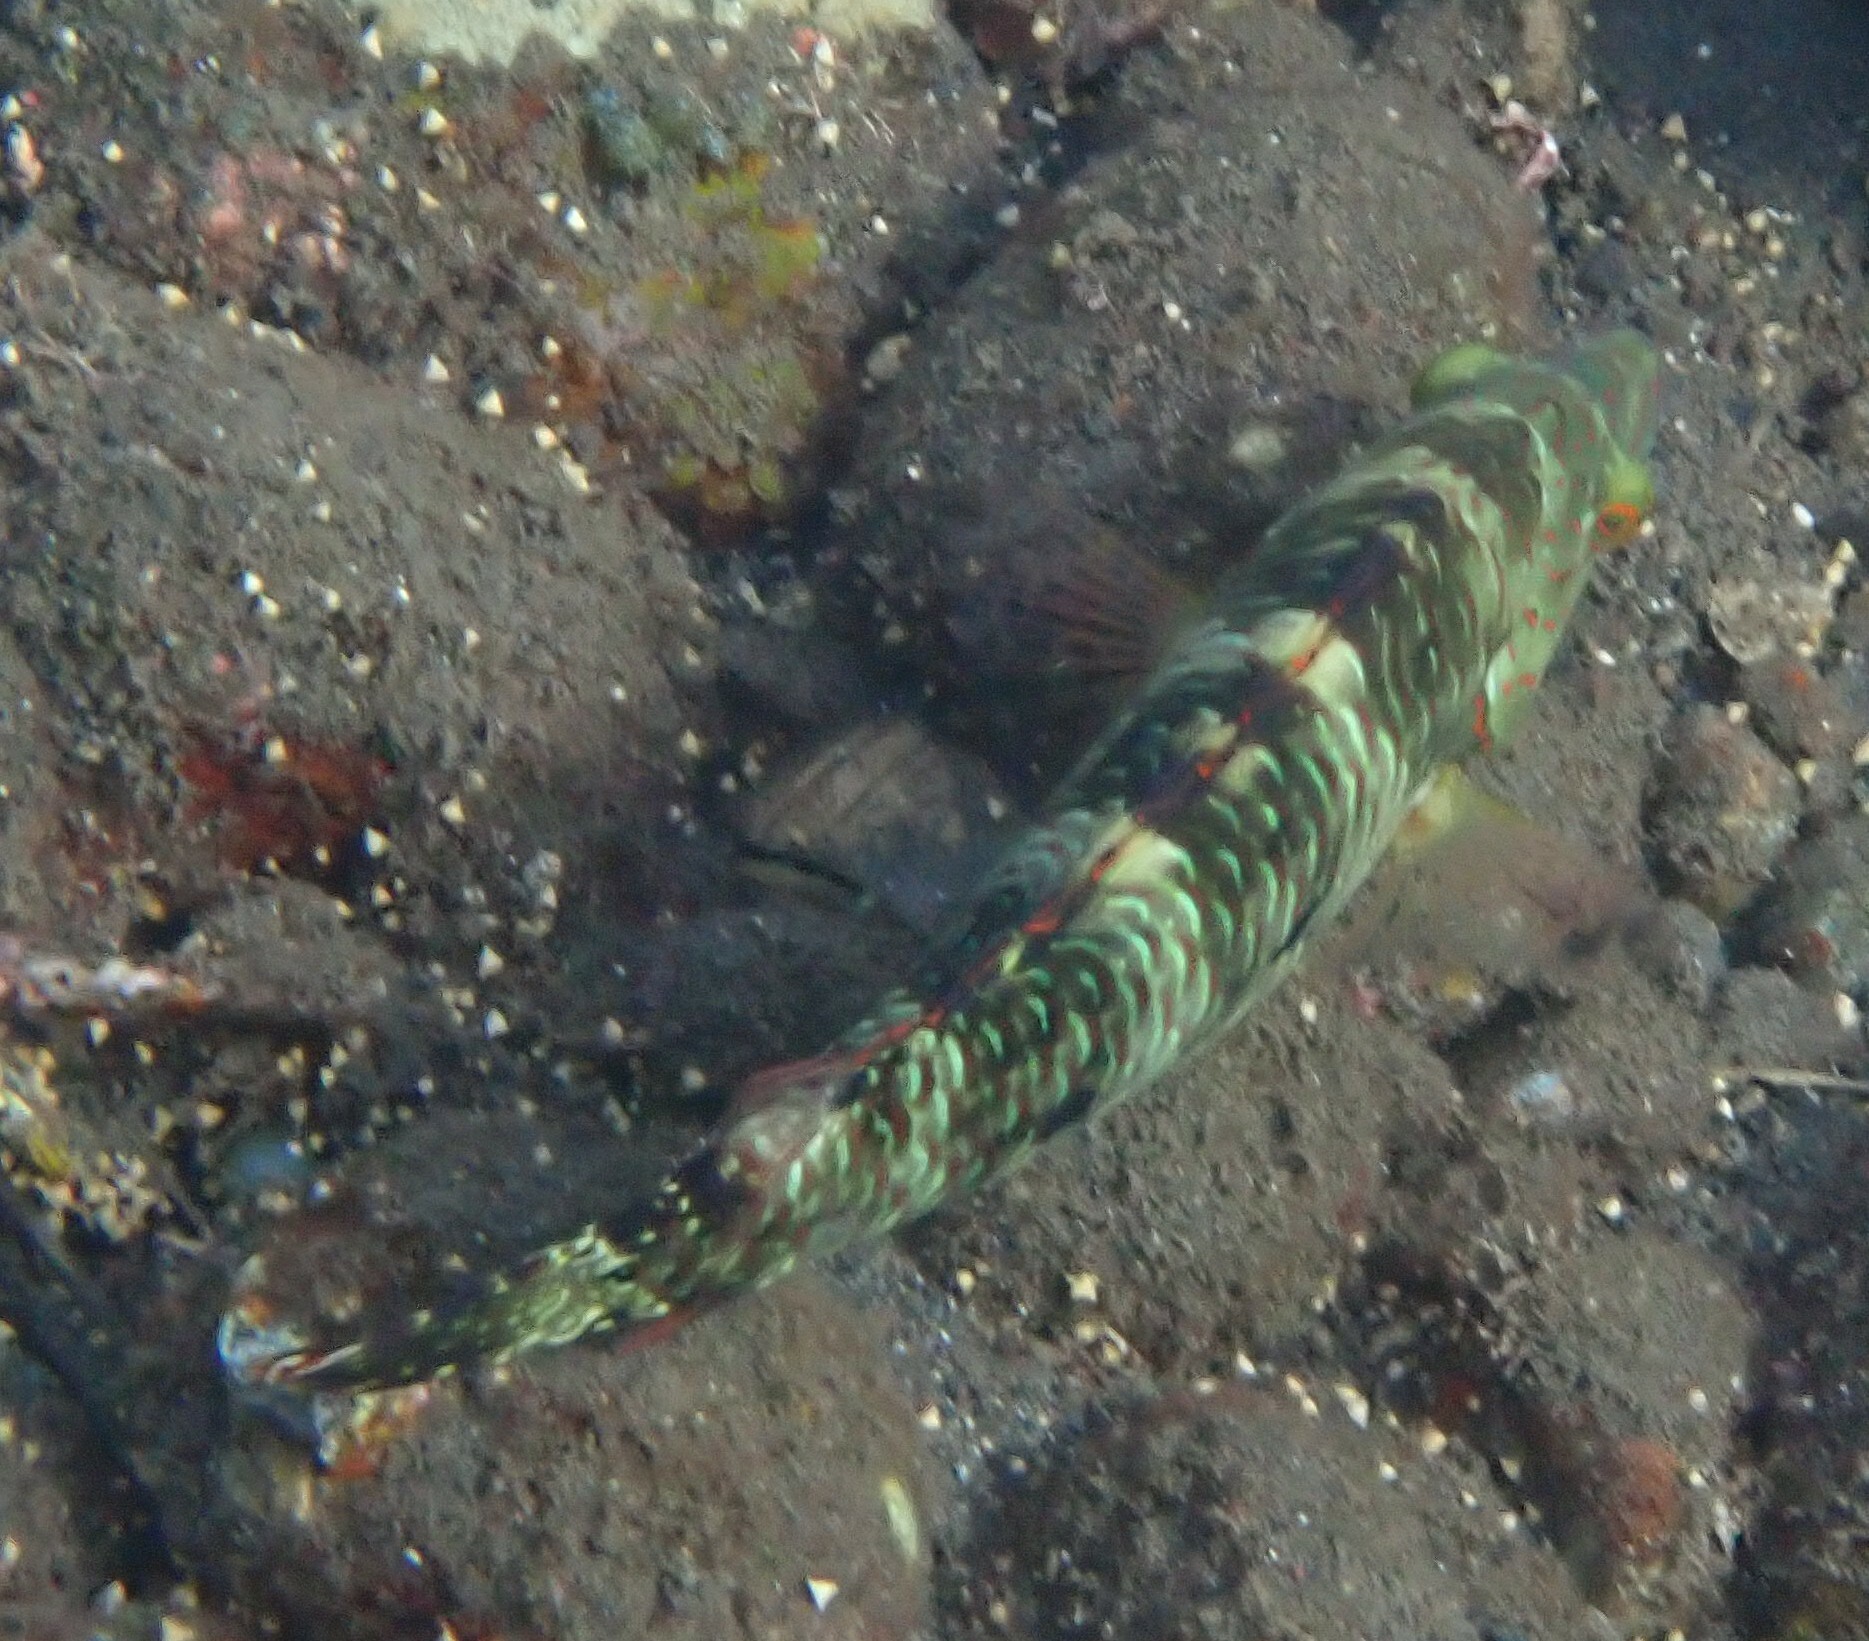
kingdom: Animalia
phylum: Chordata
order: Perciformes
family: Labridae
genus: Cheilinus
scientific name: Cheilinus trilobatus
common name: Tripletail maori wrasse
